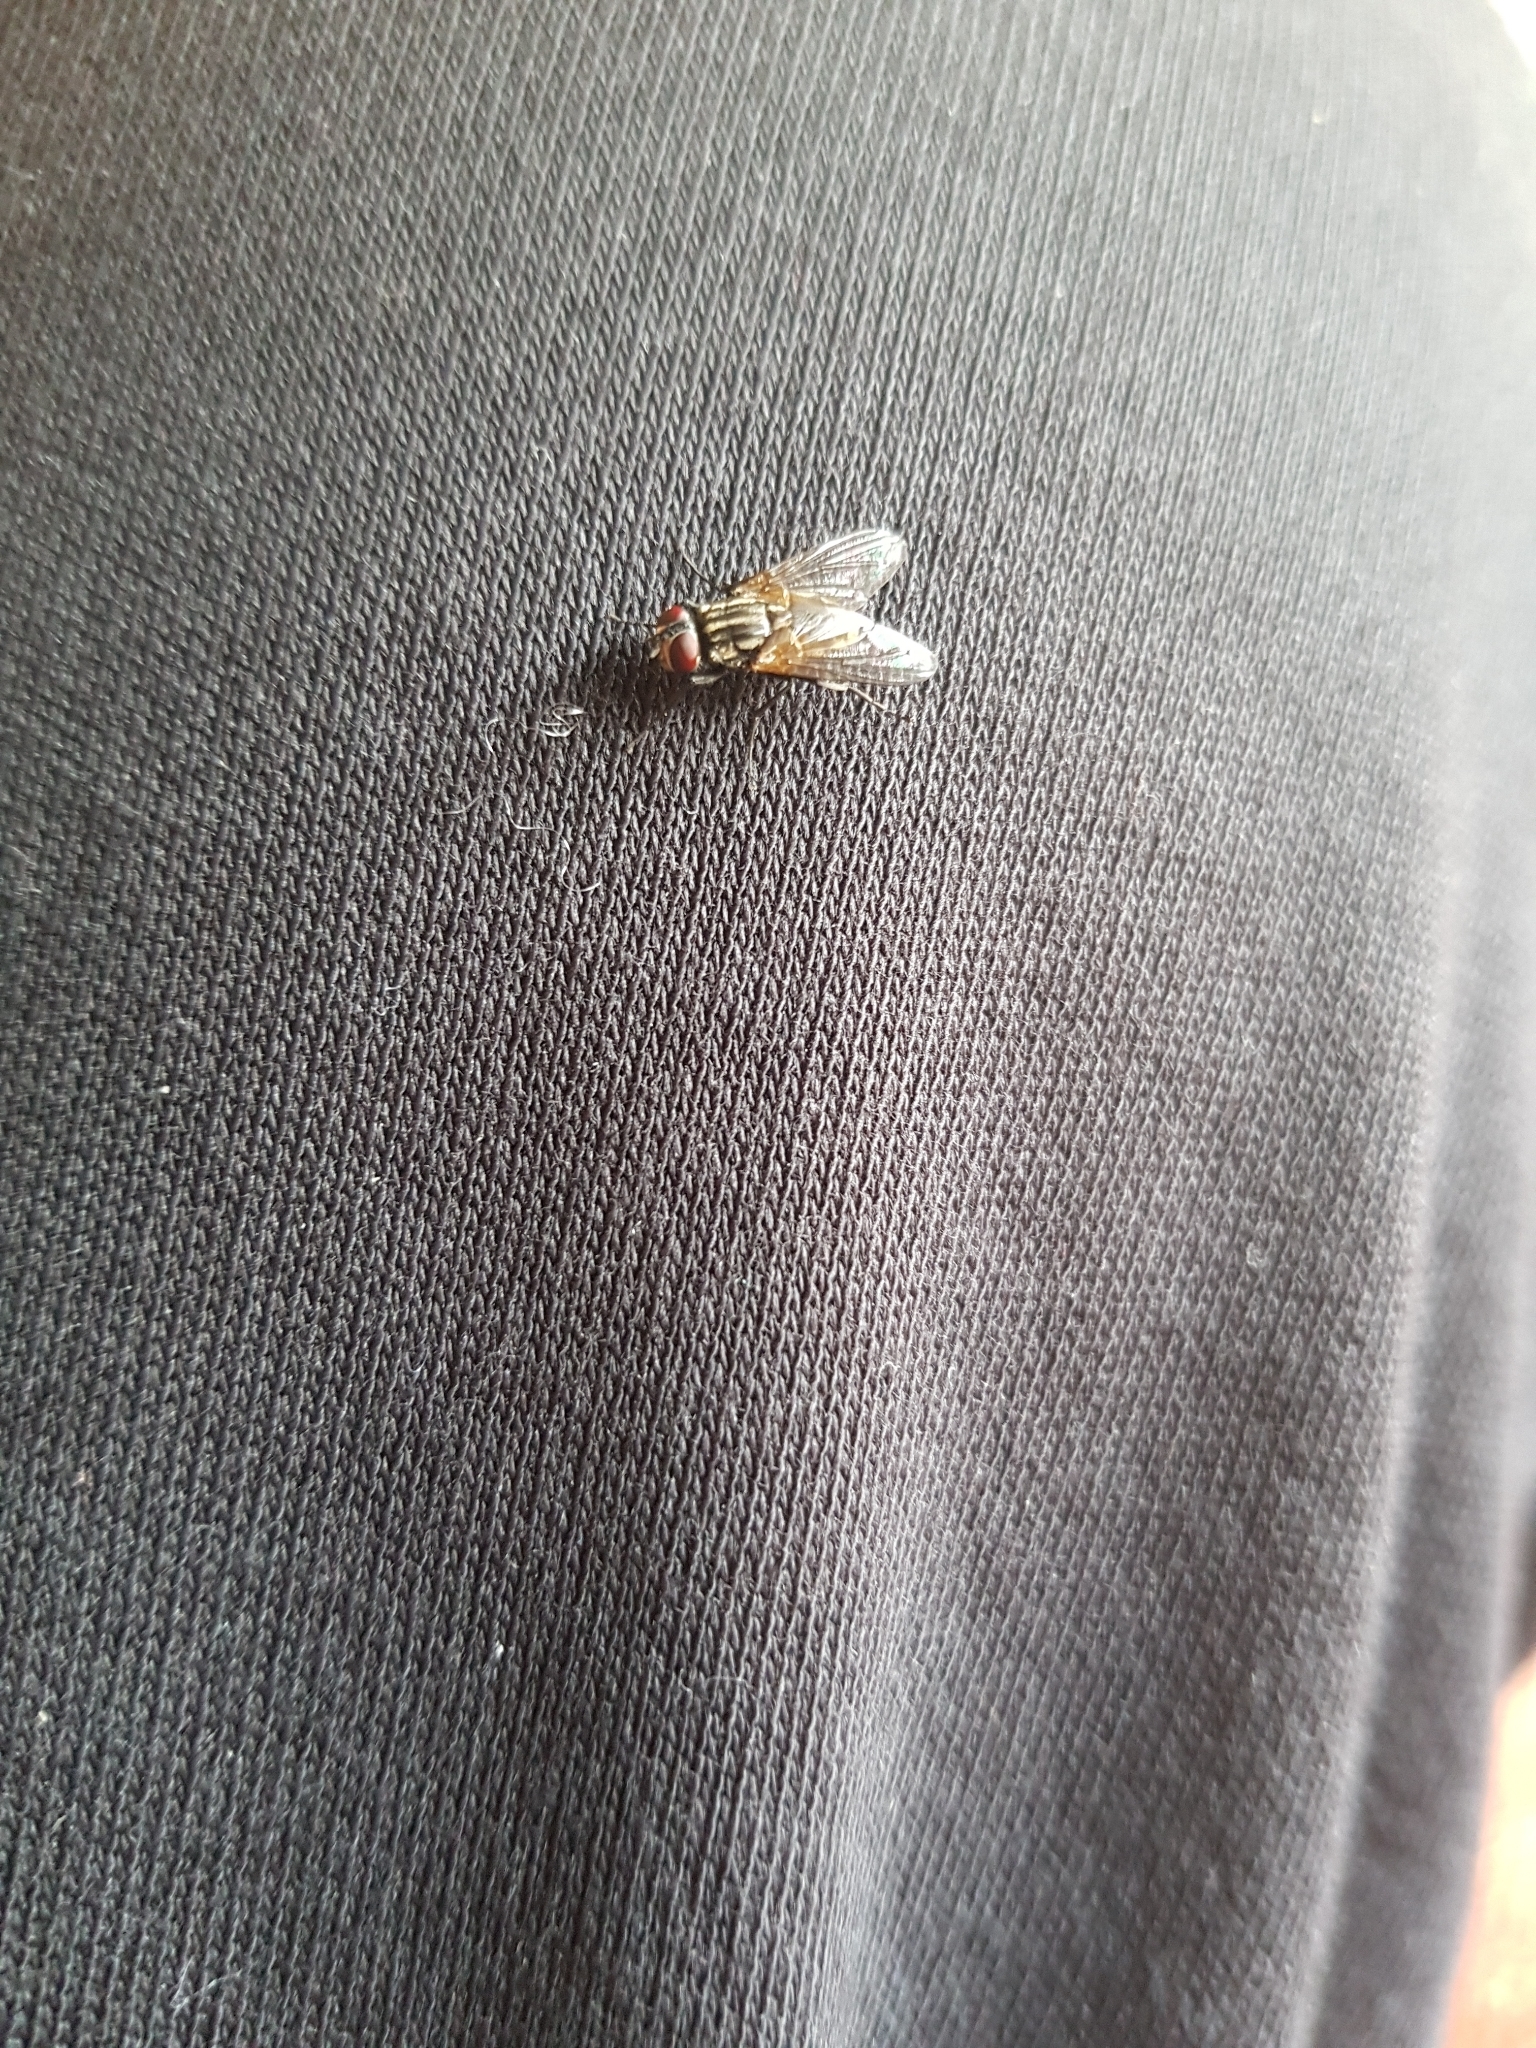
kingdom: Animalia
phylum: Arthropoda
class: Insecta
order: Diptera
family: Muscidae
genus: Musca
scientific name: Musca domestica
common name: House fly
